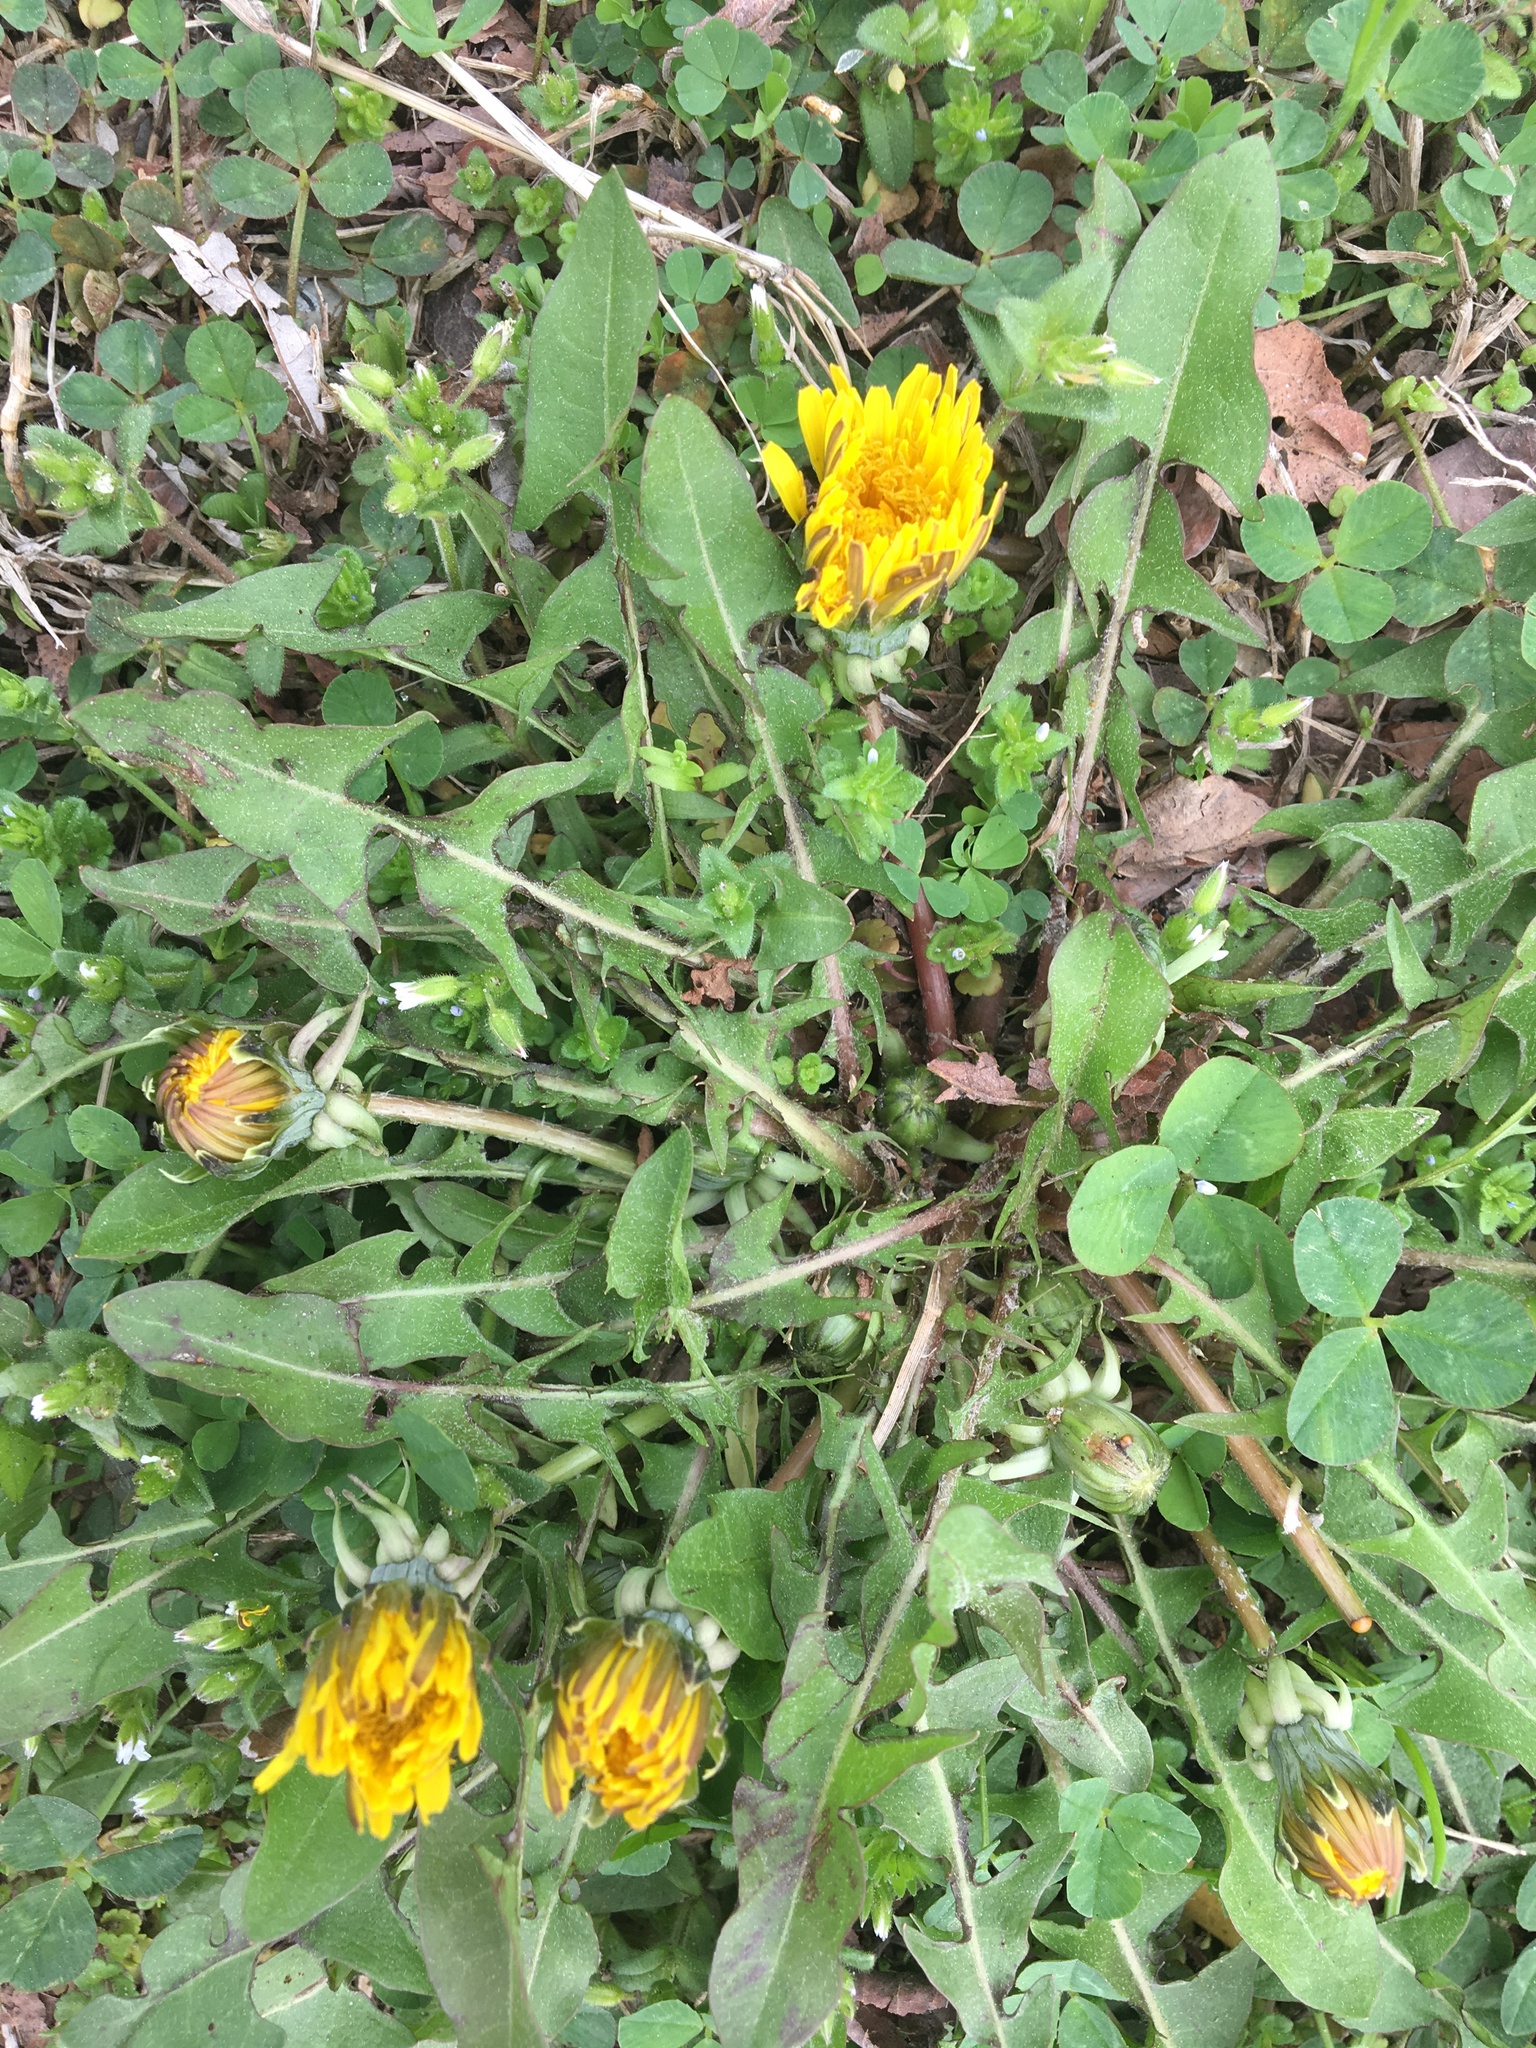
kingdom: Plantae
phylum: Tracheophyta
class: Magnoliopsida
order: Asterales
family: Asteraceae
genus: Taraxacum
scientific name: Taraxacum officinale
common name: Common dandelion
